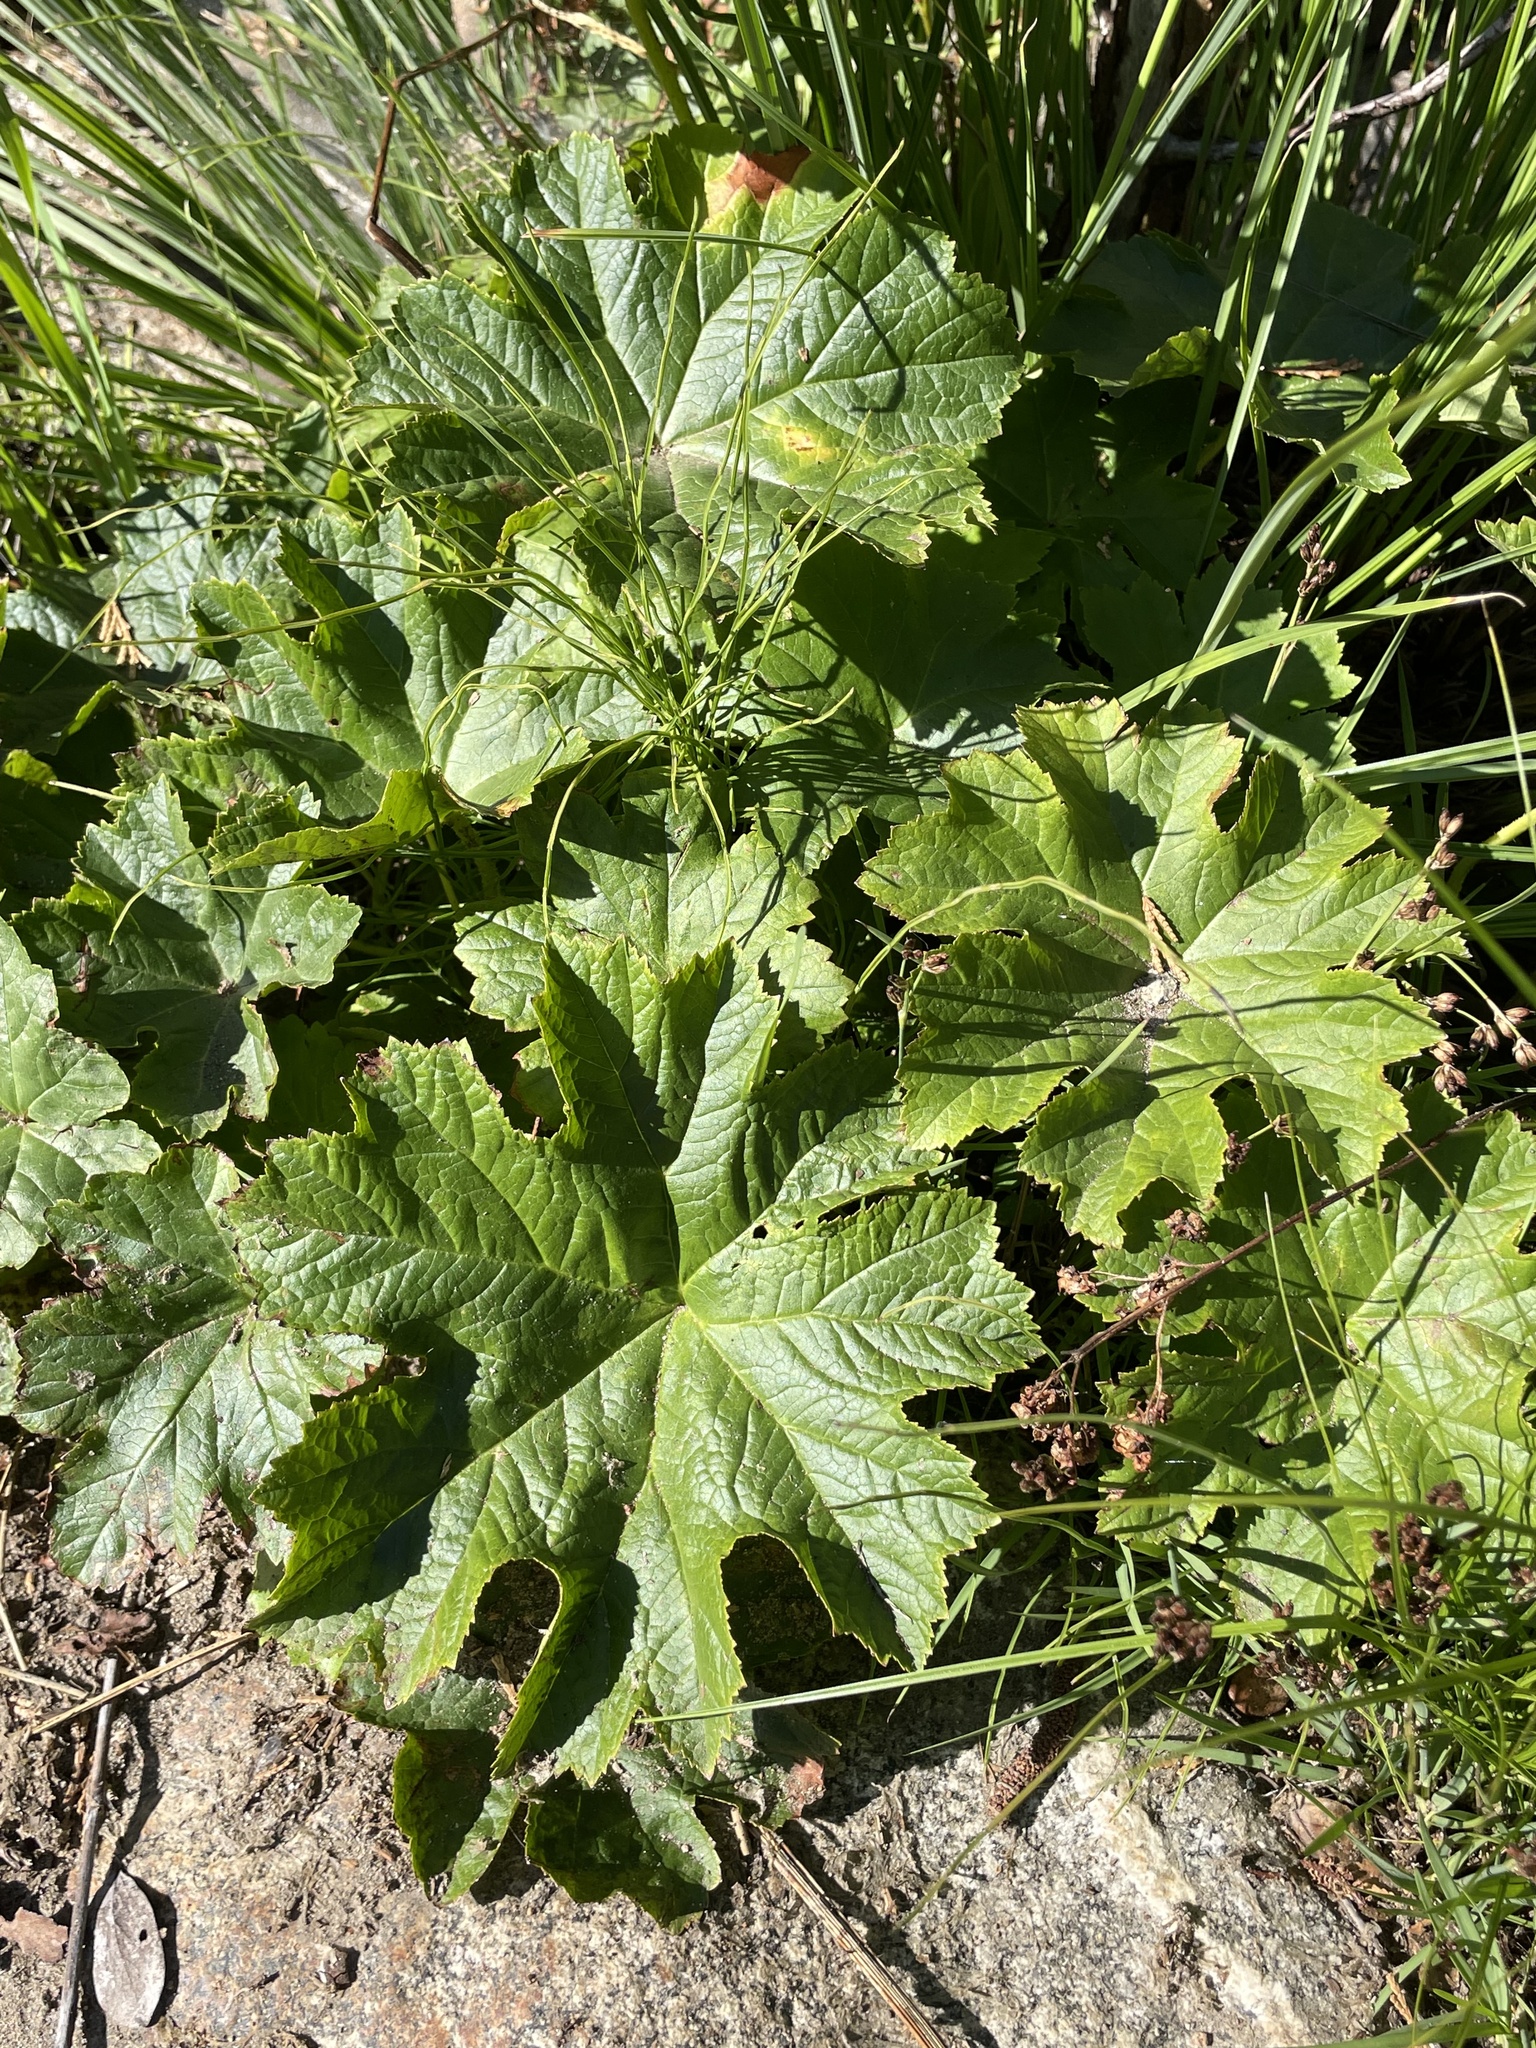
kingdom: Plantae
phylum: Tracheophyta
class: Magnoliopsida
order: Saxifragales
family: Saxifragaceae
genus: Darmera
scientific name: Darmera peltata
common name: Indian-rhubarb
